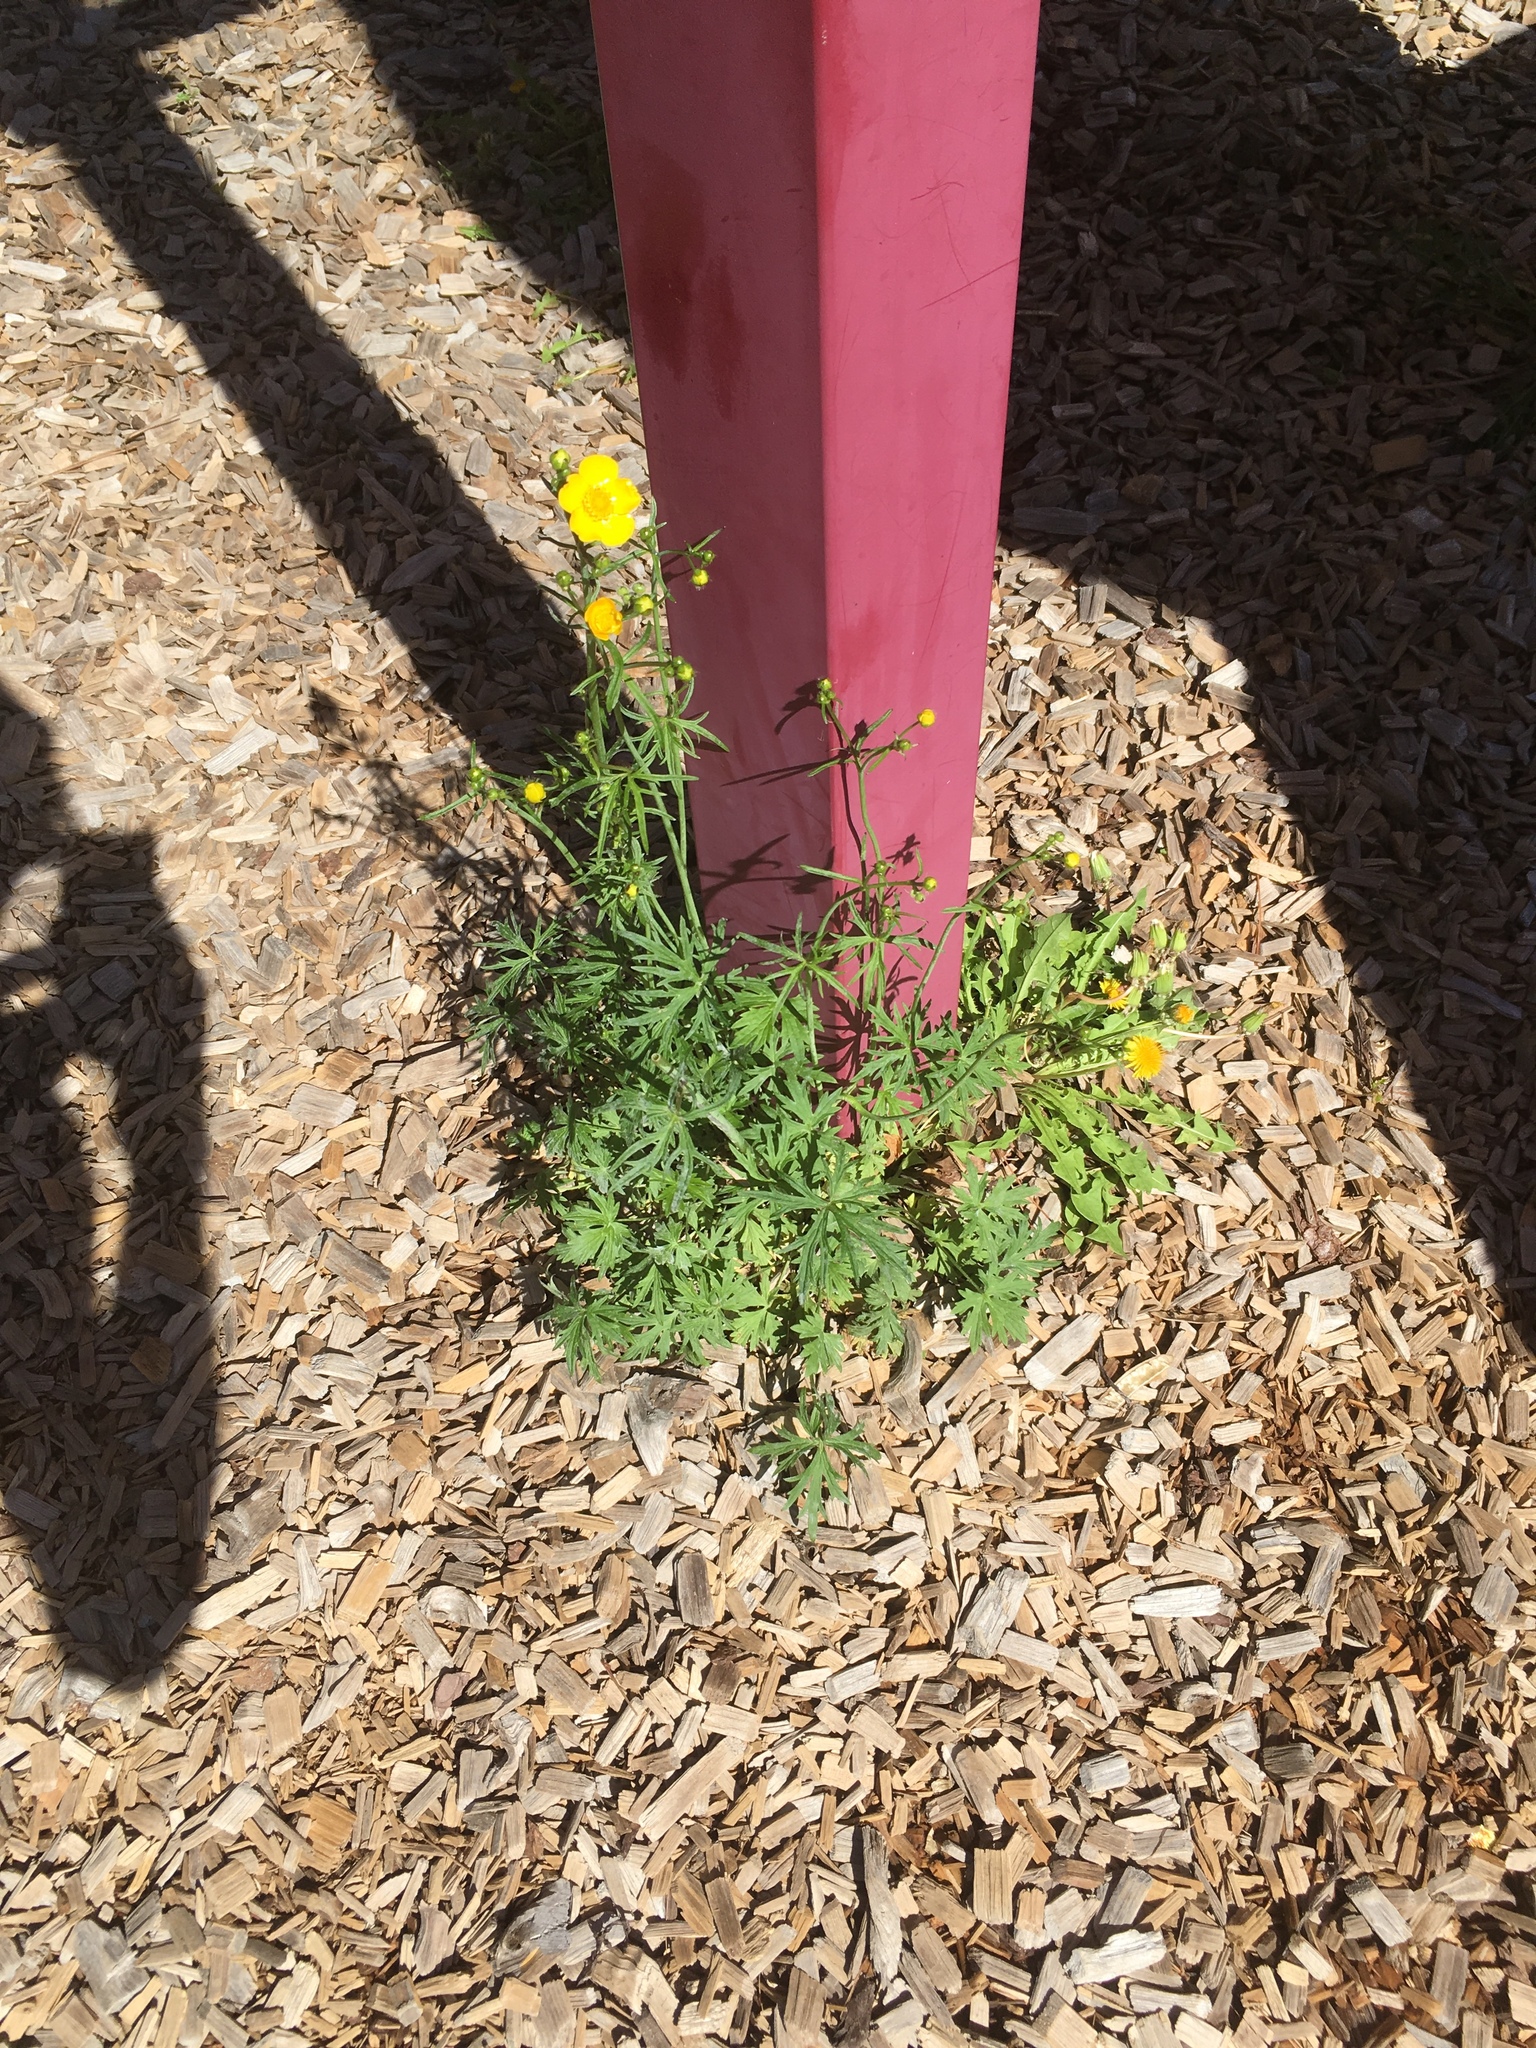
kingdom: Plantae
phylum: Tracheophyta
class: Magnoliopsida
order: Ranunculales
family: Ranunculaceae
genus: Ranunculus
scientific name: Ranunculus acris
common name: Meadow buttercup
